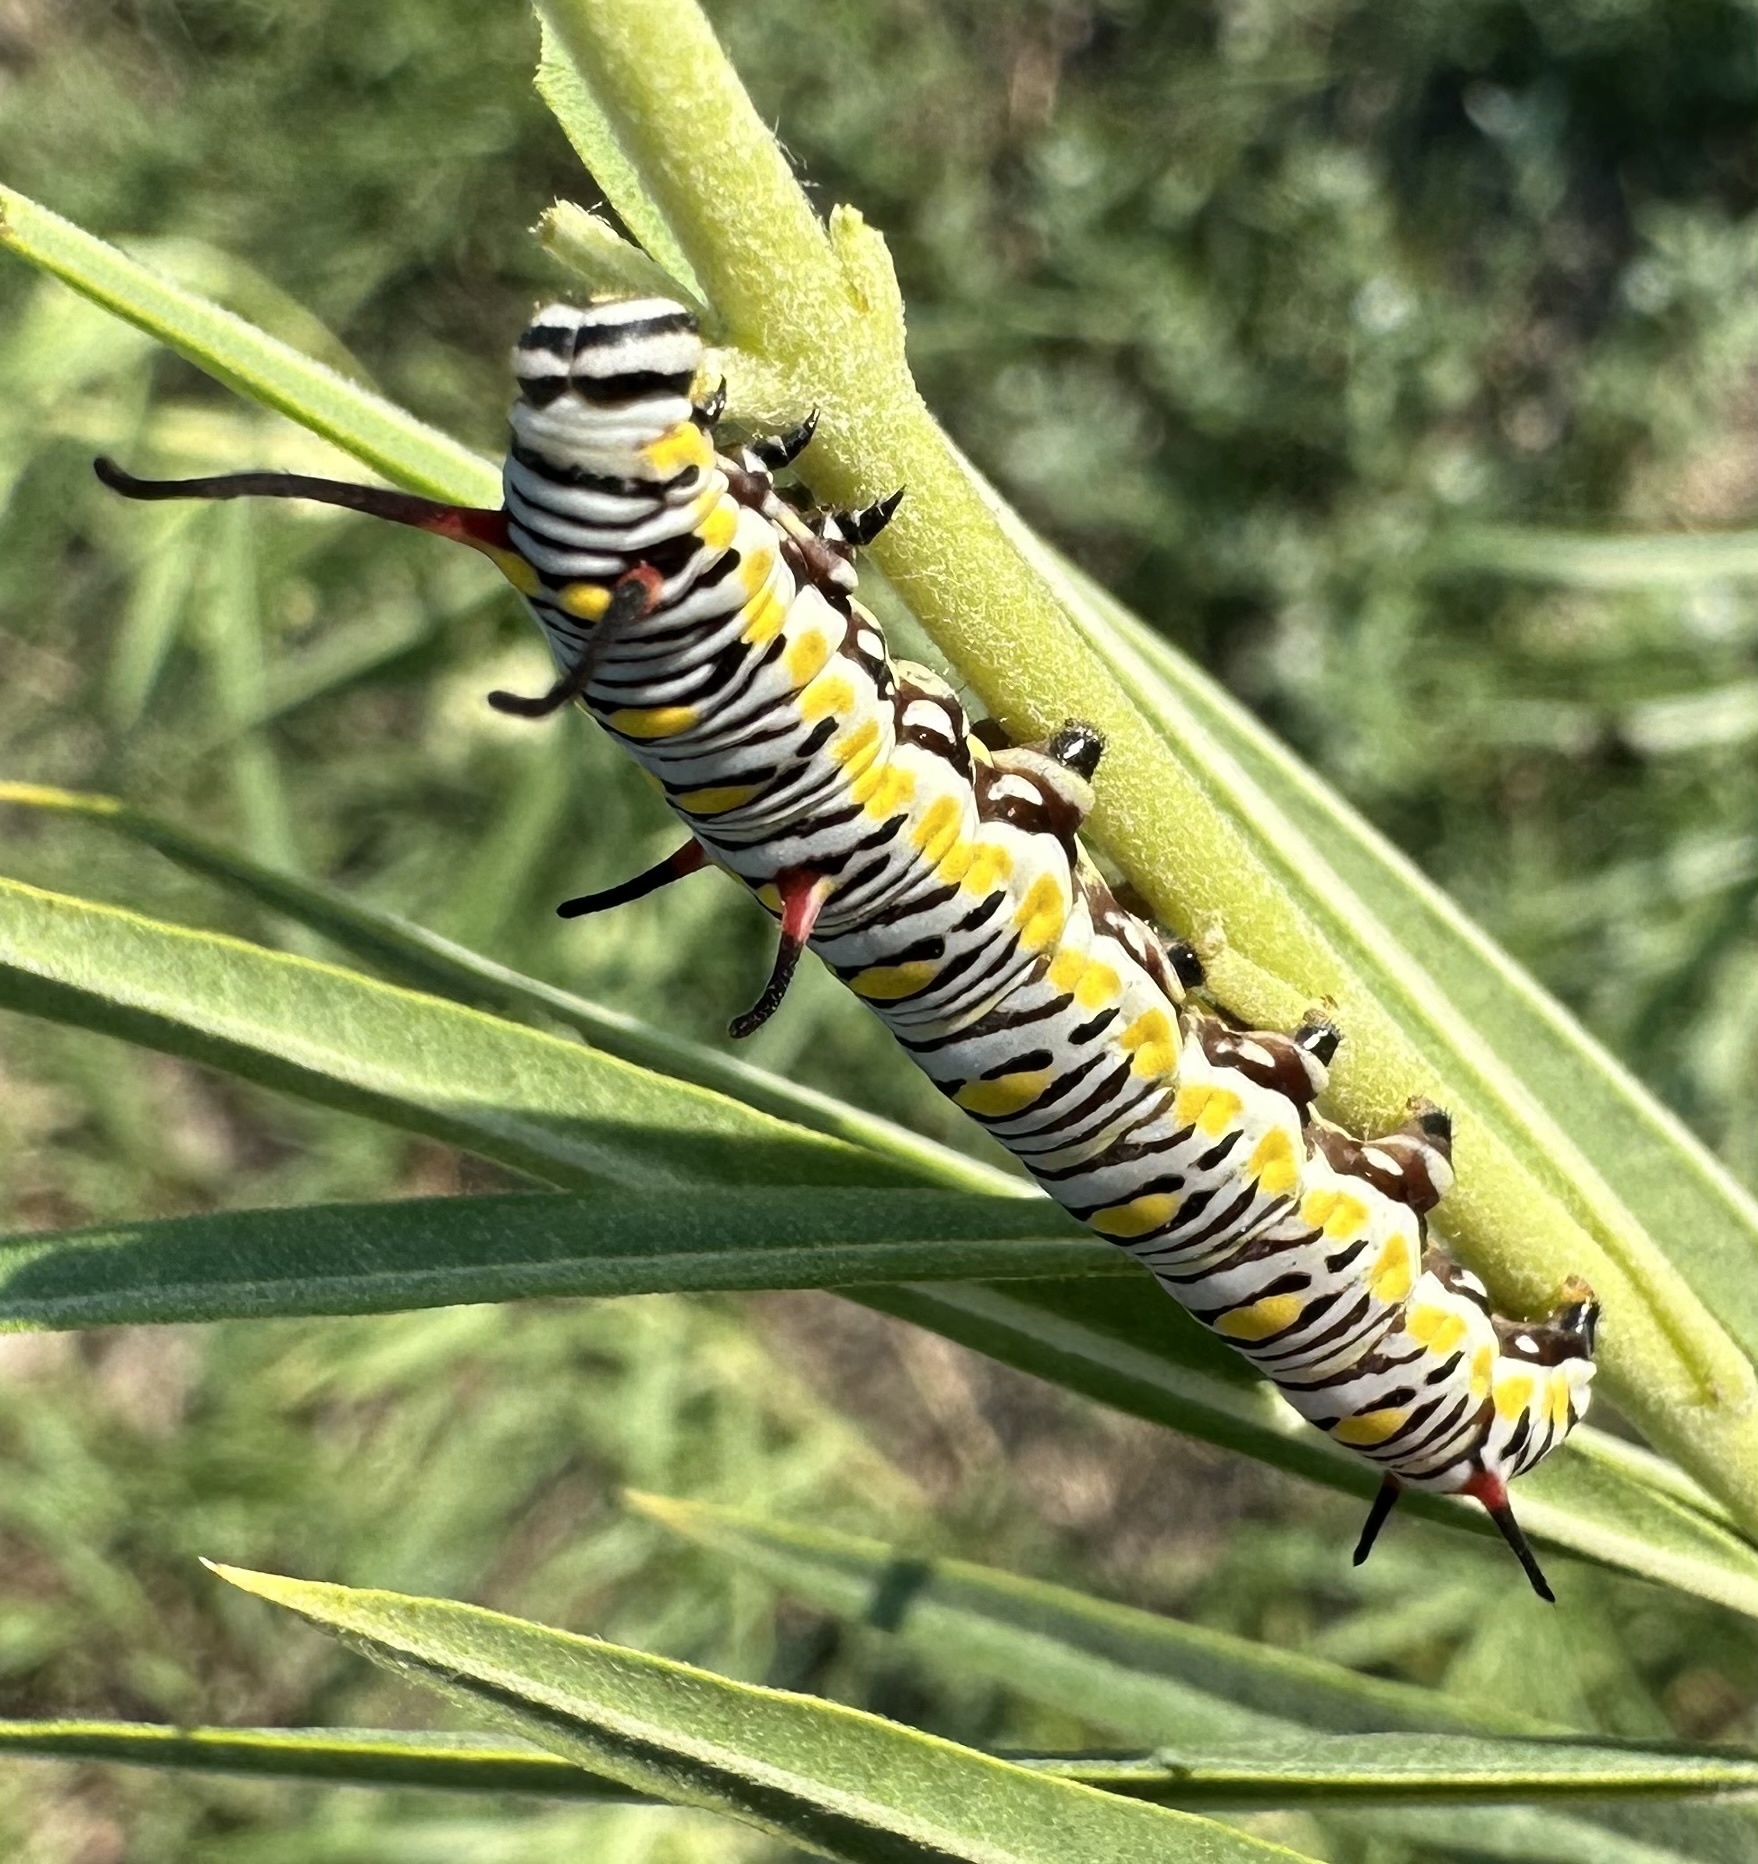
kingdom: Animalia
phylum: Arthropoda
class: Insecta
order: Lepidoptera
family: Nymphalidae
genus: Danaus
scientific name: Danaus chrysippus
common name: Plain tiger
